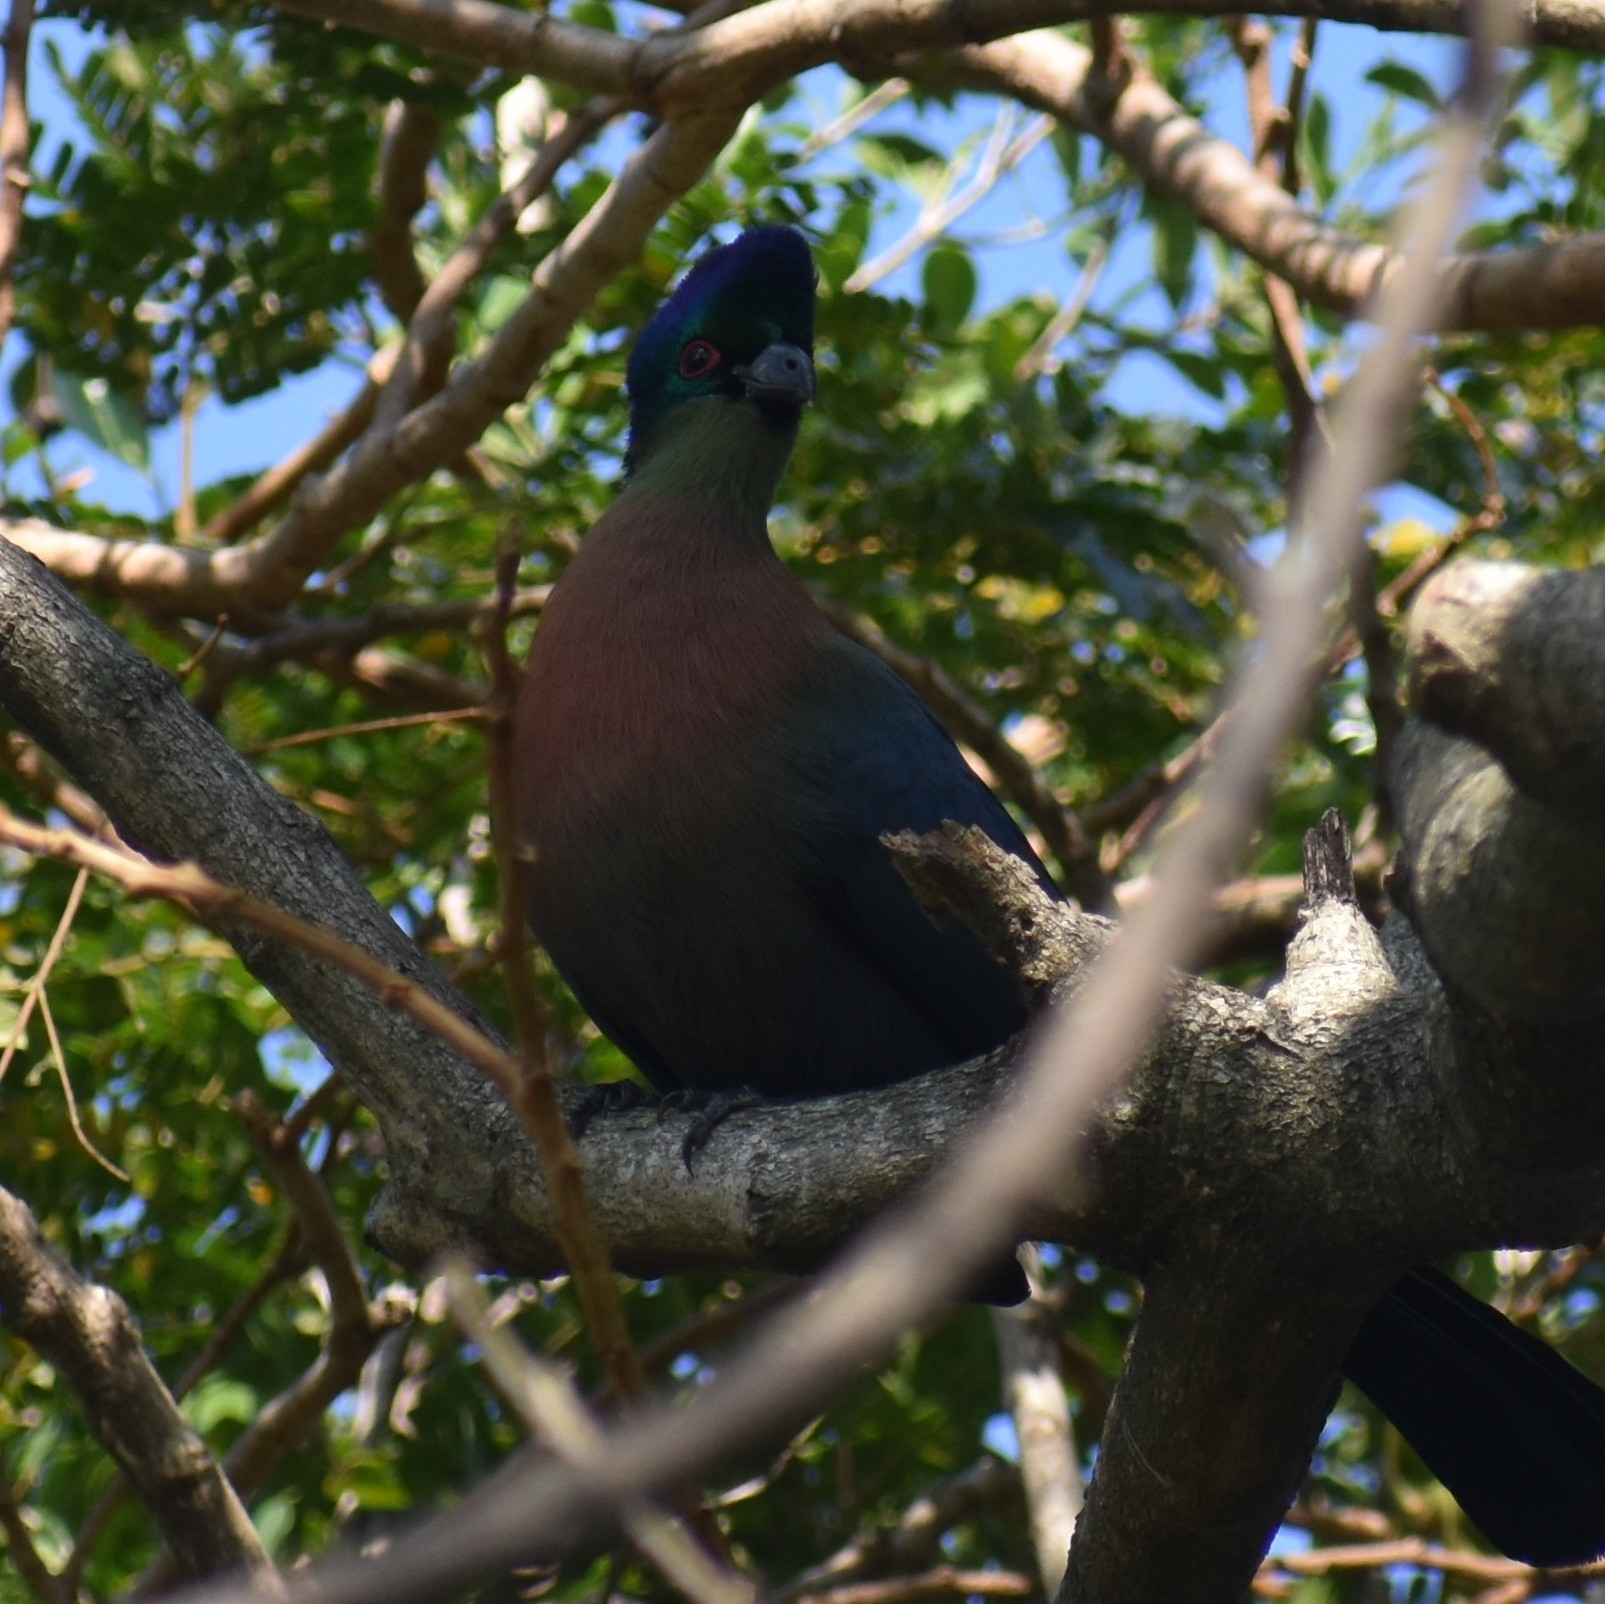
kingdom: Animalia
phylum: Chordata
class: Aves
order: Musophagiformes
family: Musophagidae
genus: Tauraco
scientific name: Tauraco porphyreolophus
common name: Purple-crested turaco
